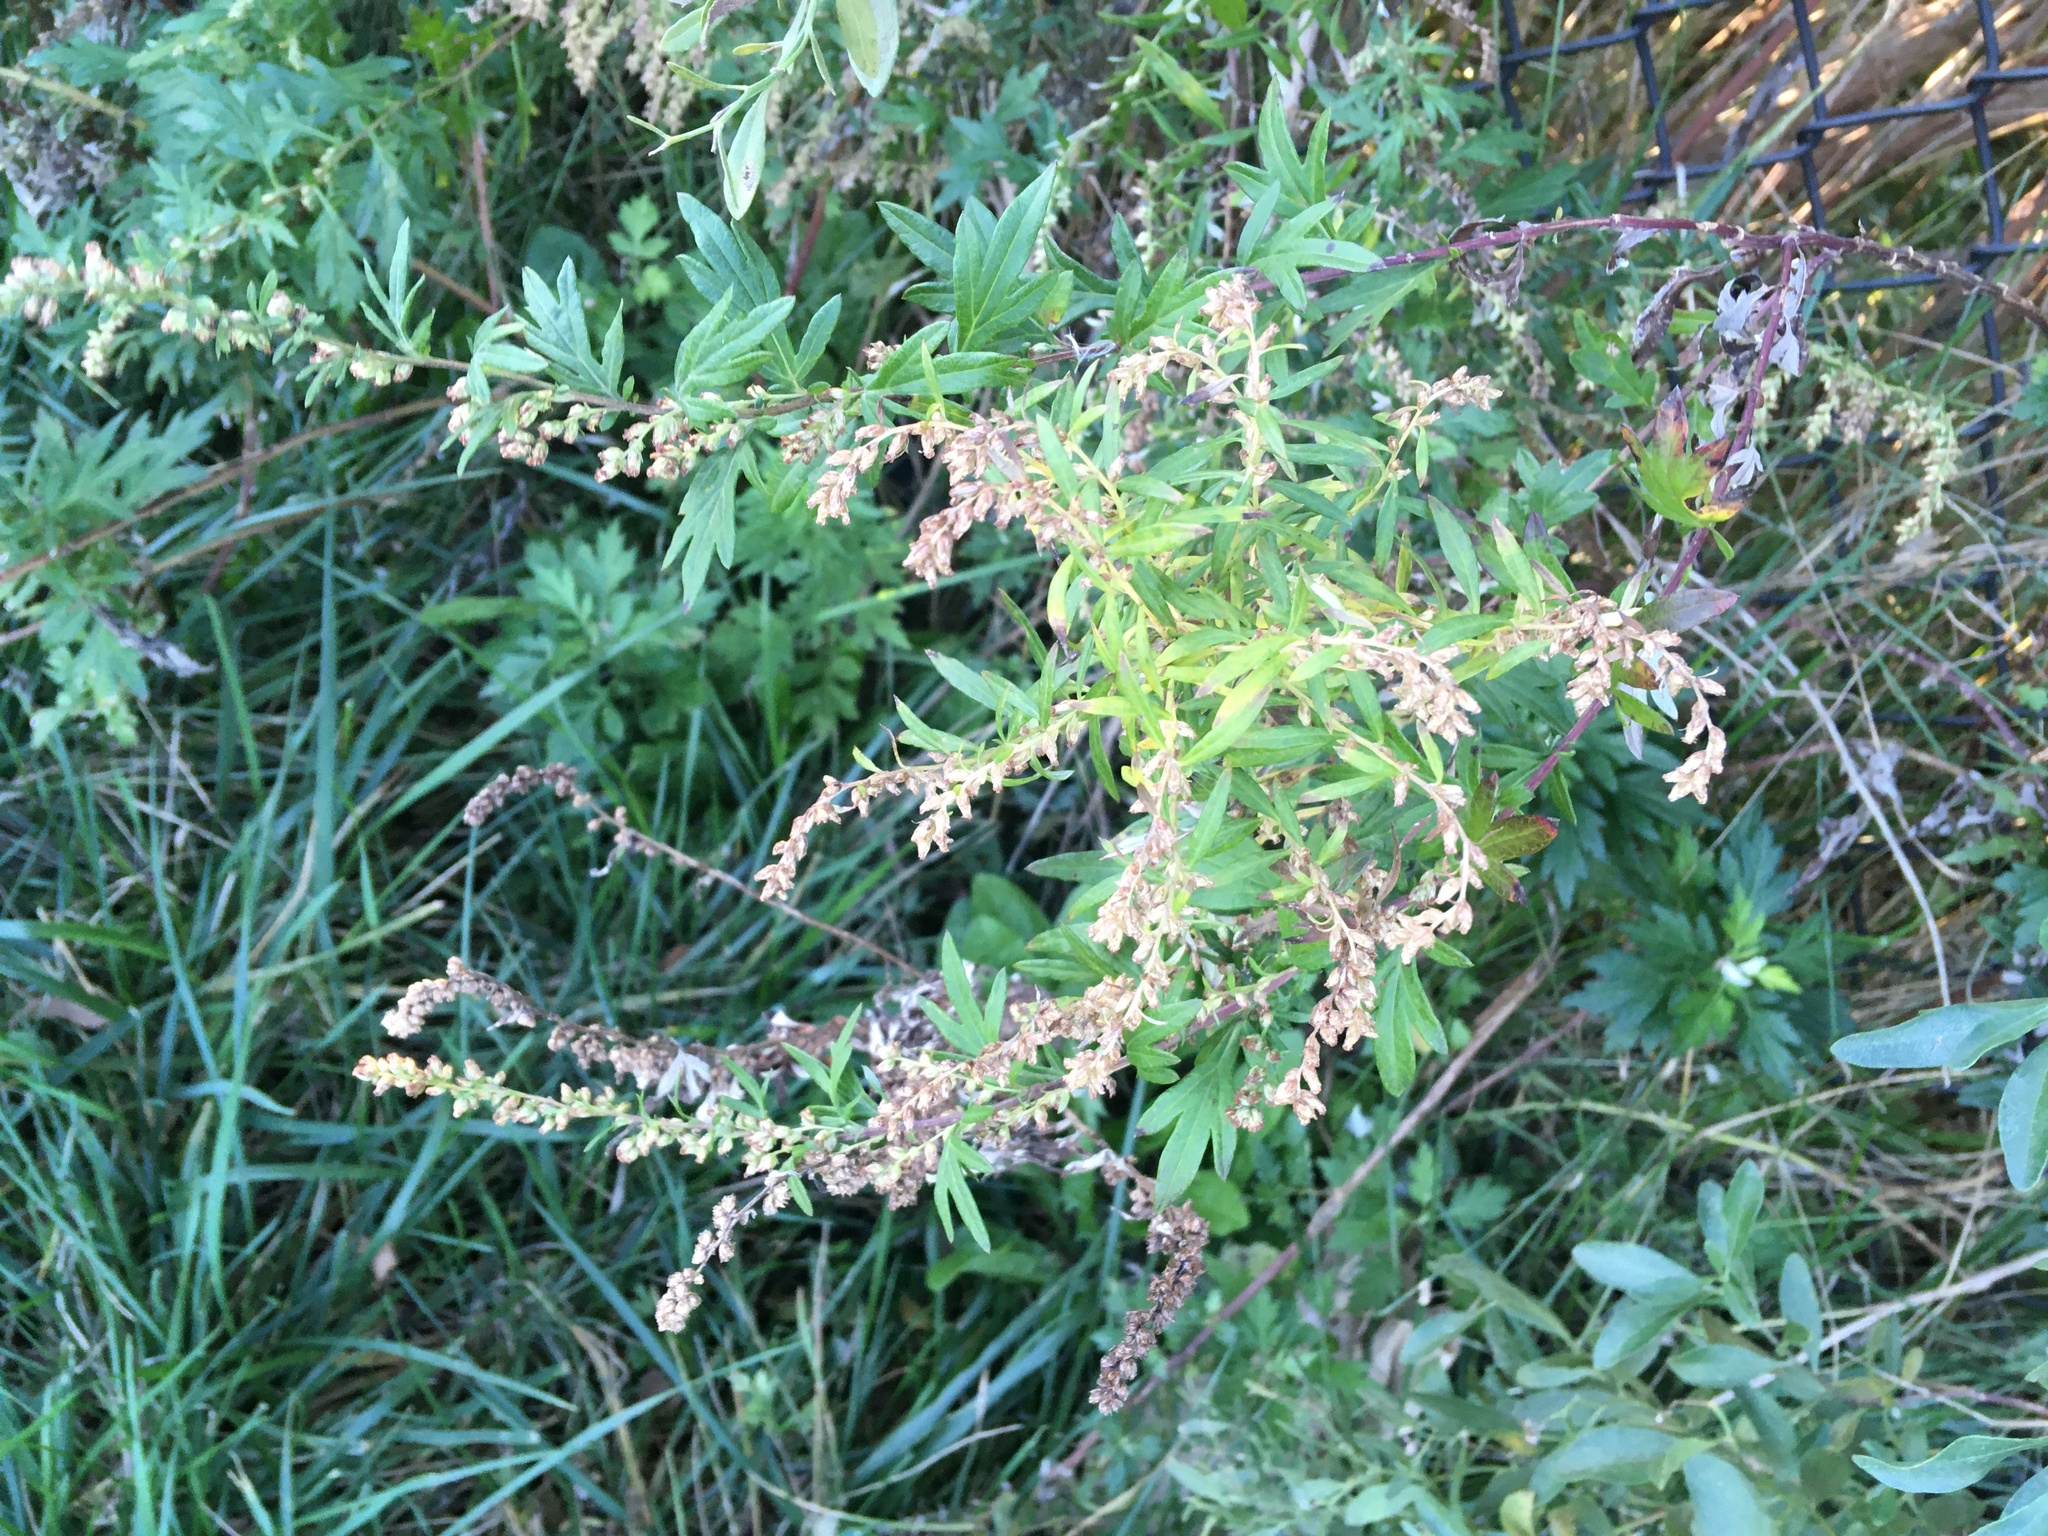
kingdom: Plantae
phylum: Tracheophyta
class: Magnoliopsida
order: Asterales
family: Asteraceae
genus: Artemisia
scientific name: Artemisia vulgaris
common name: Mugwort
